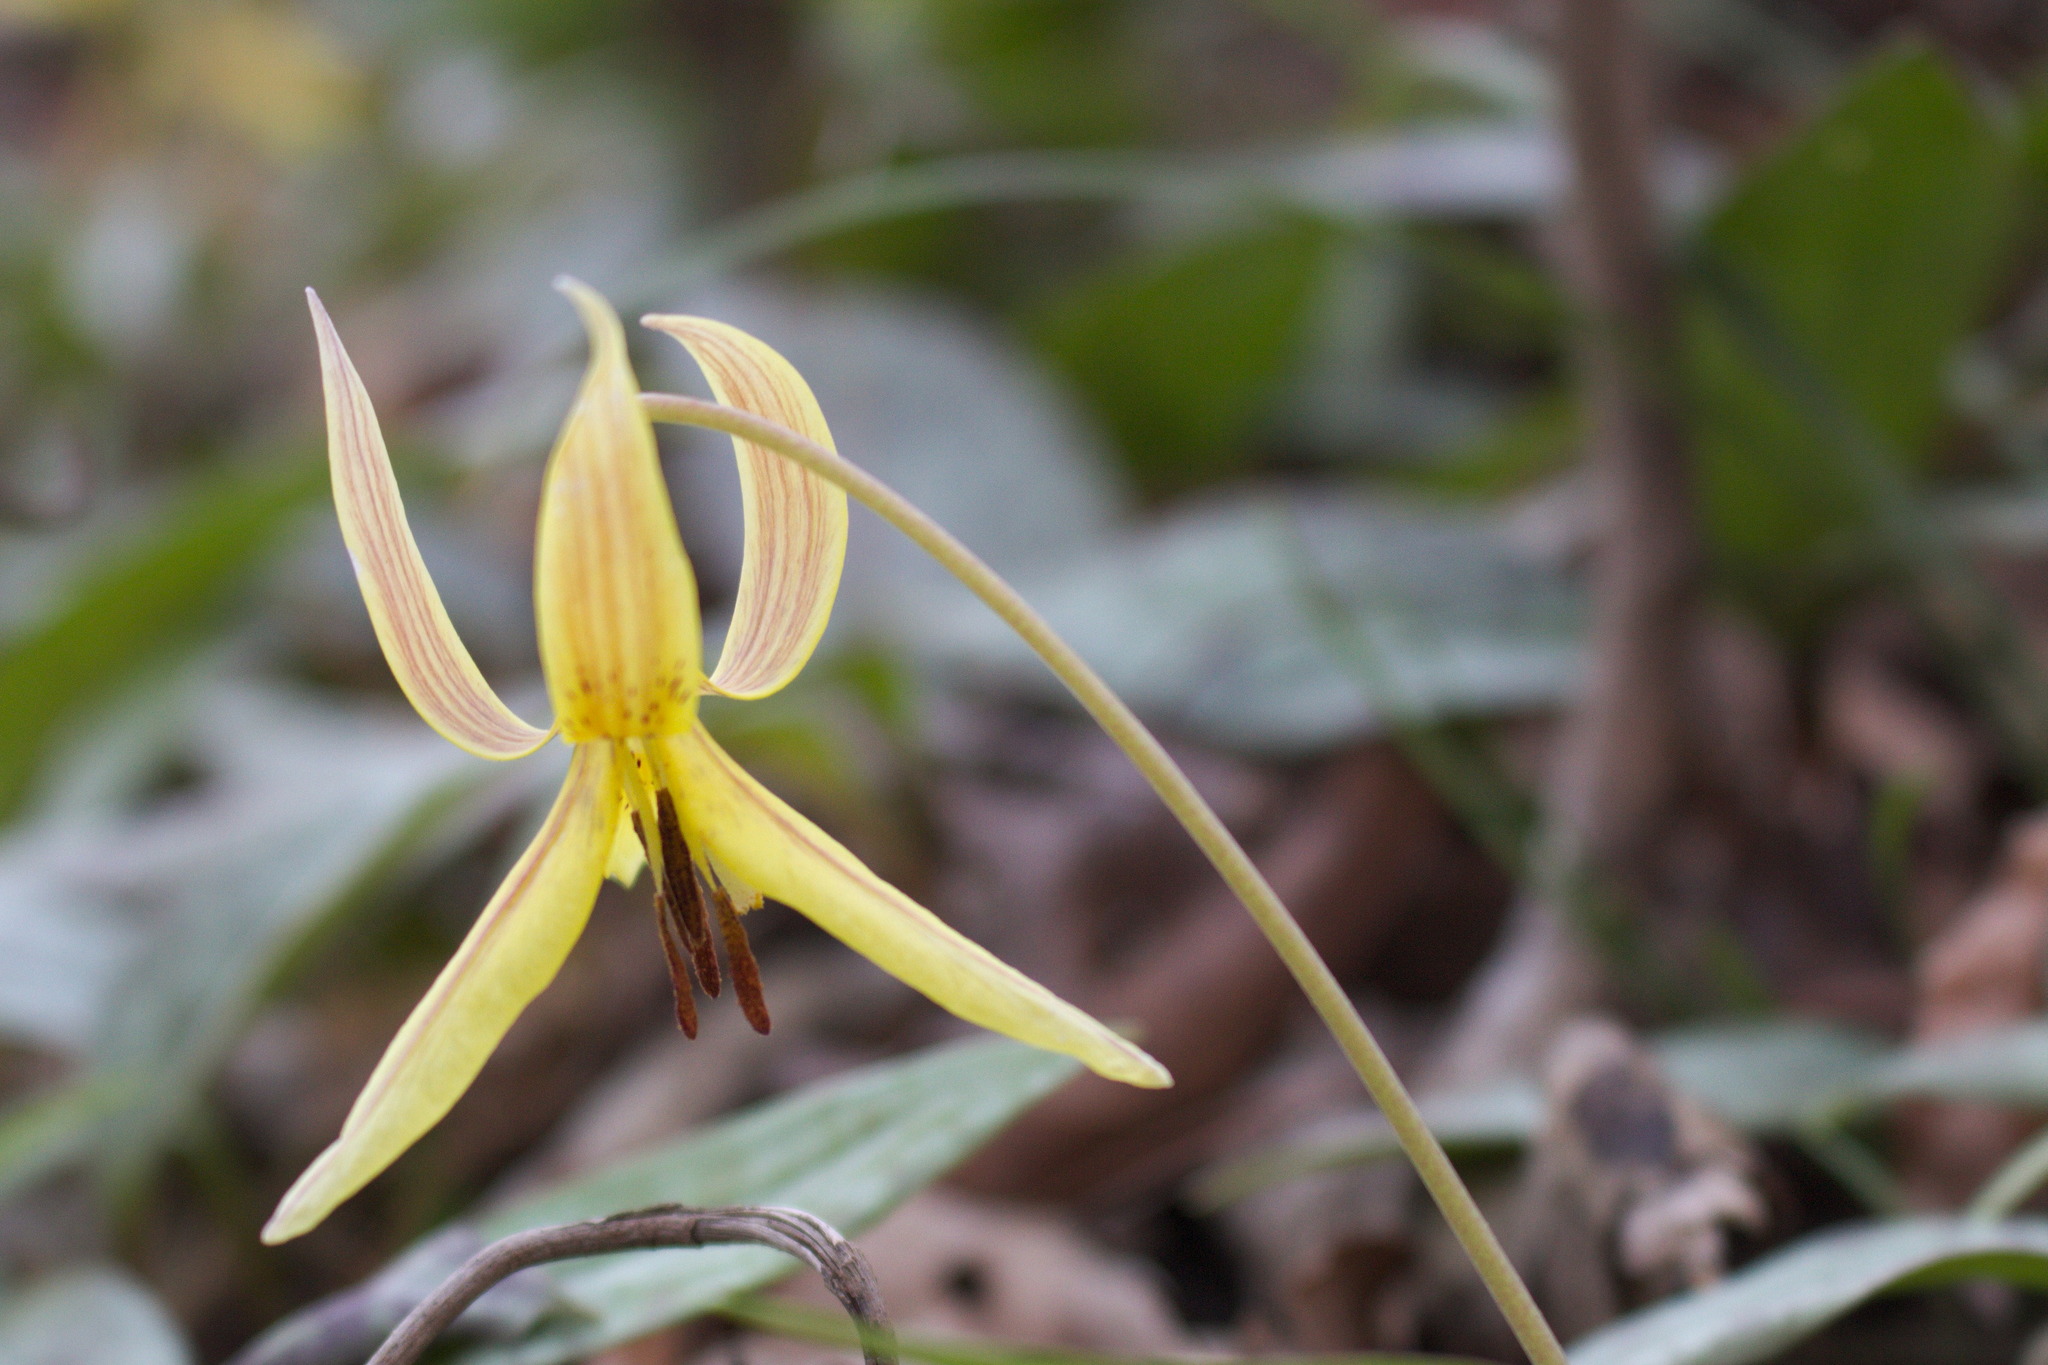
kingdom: Plantae
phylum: Tracheophyta
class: Liliopsida
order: Liliales
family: Liliaceae
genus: Erythronium
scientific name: Erythronium umbilicatum
